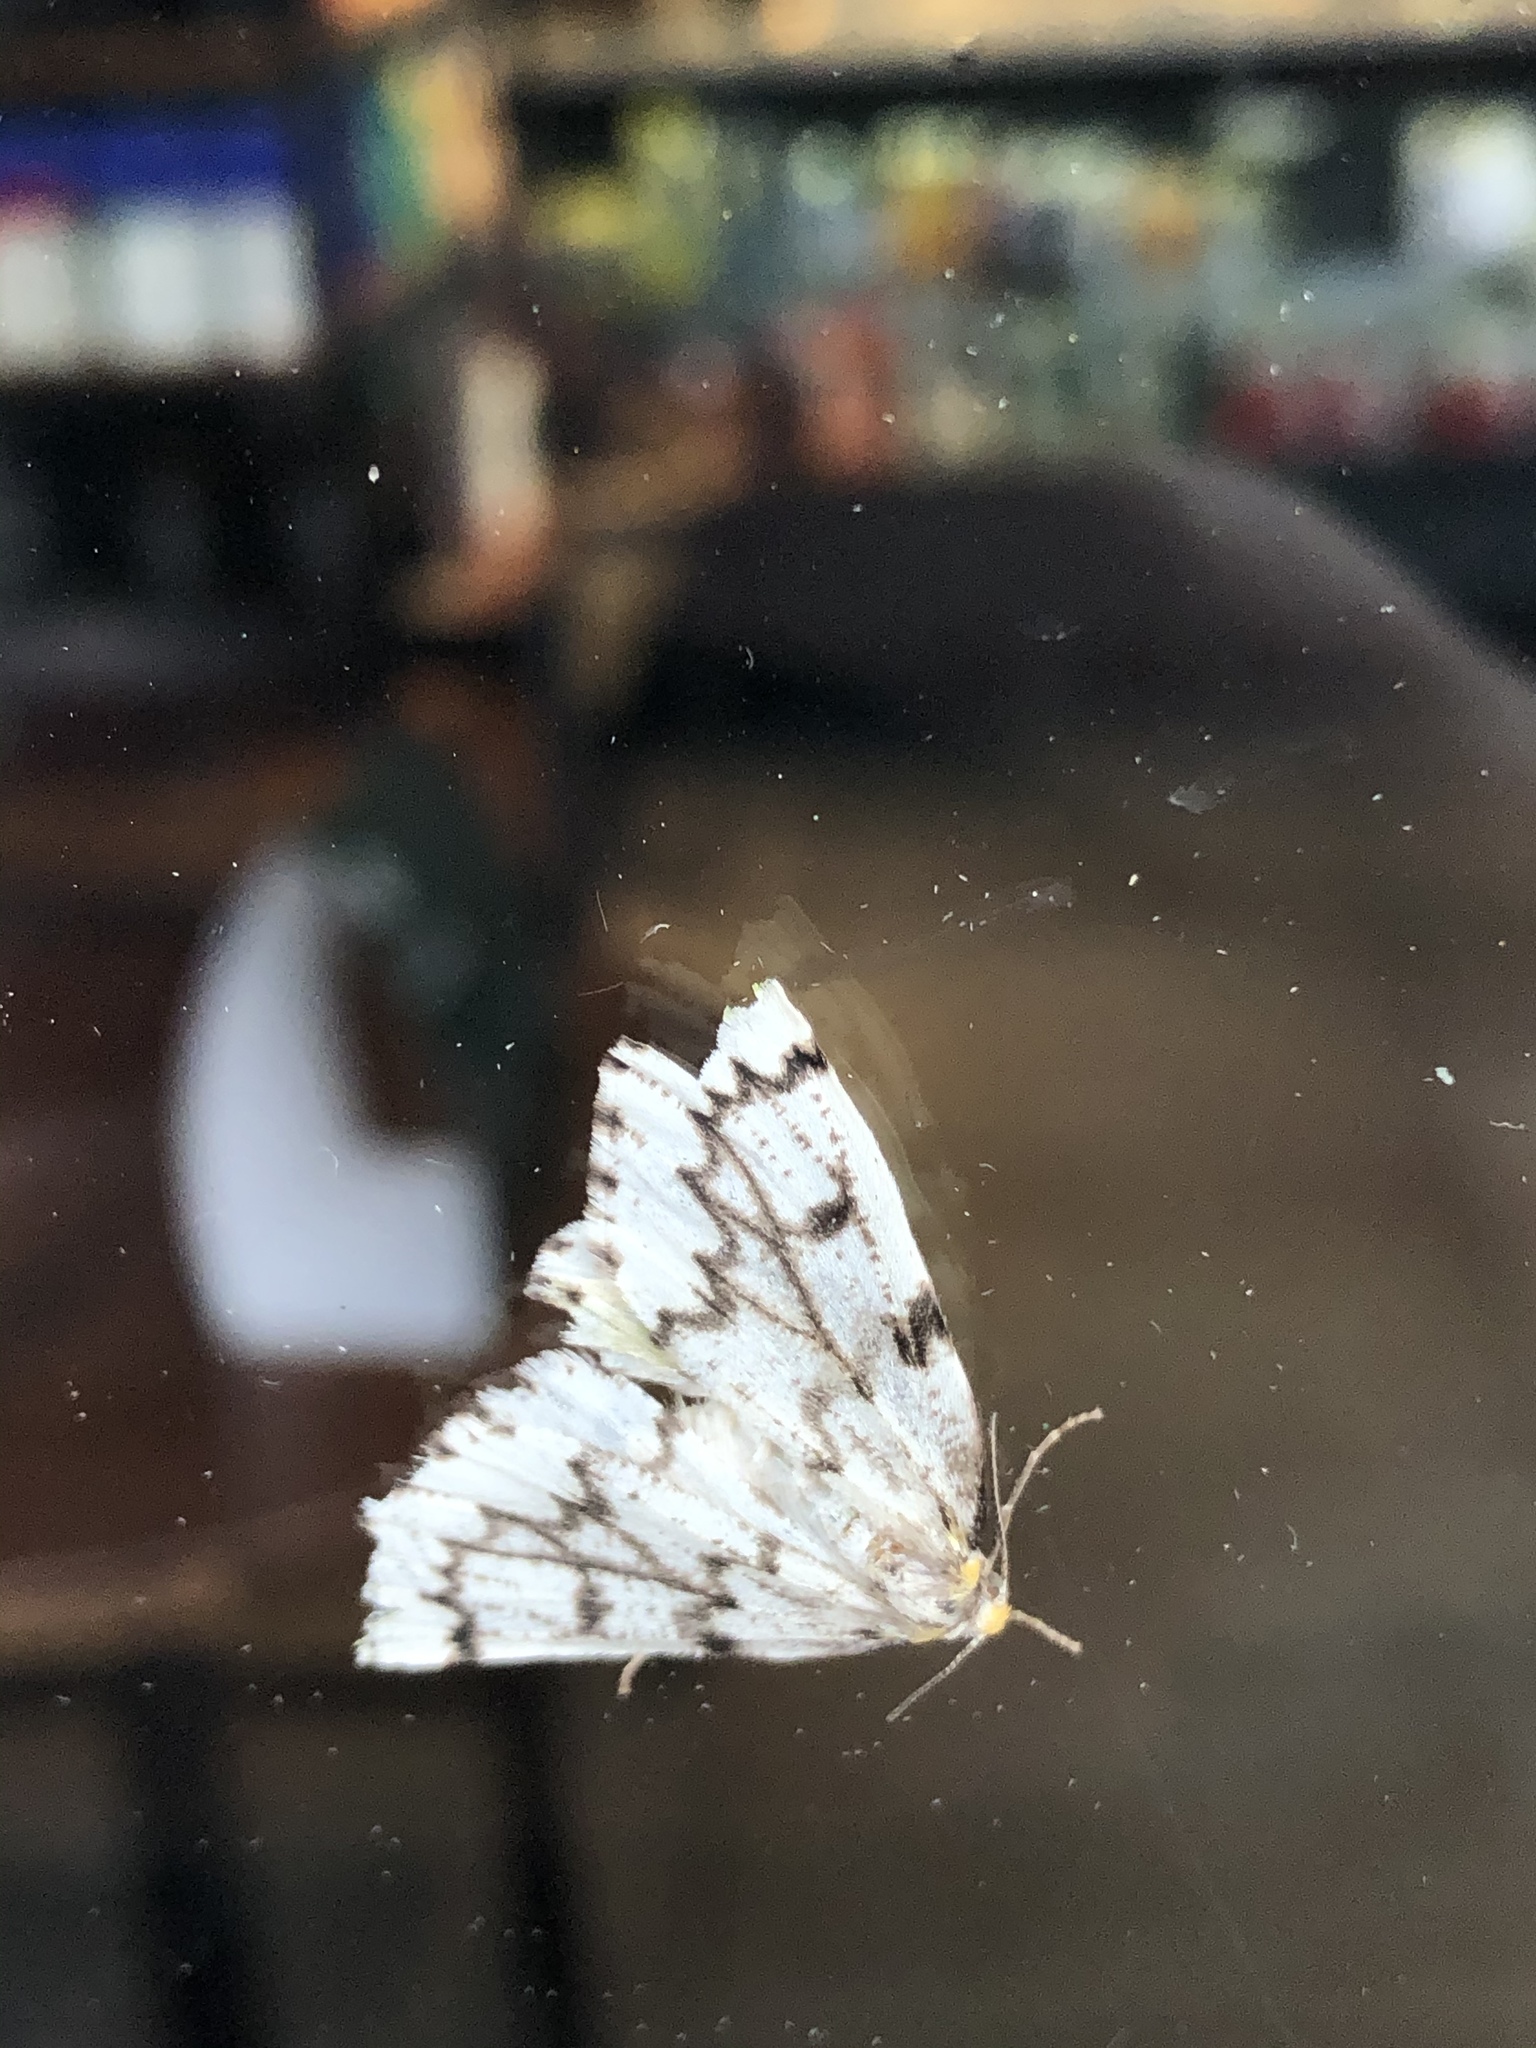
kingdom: Animalia
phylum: Arthropoda
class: Insecta
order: Lepidoptera
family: Geometridae
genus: Nepytia
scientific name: Nepytia phantasmaria
